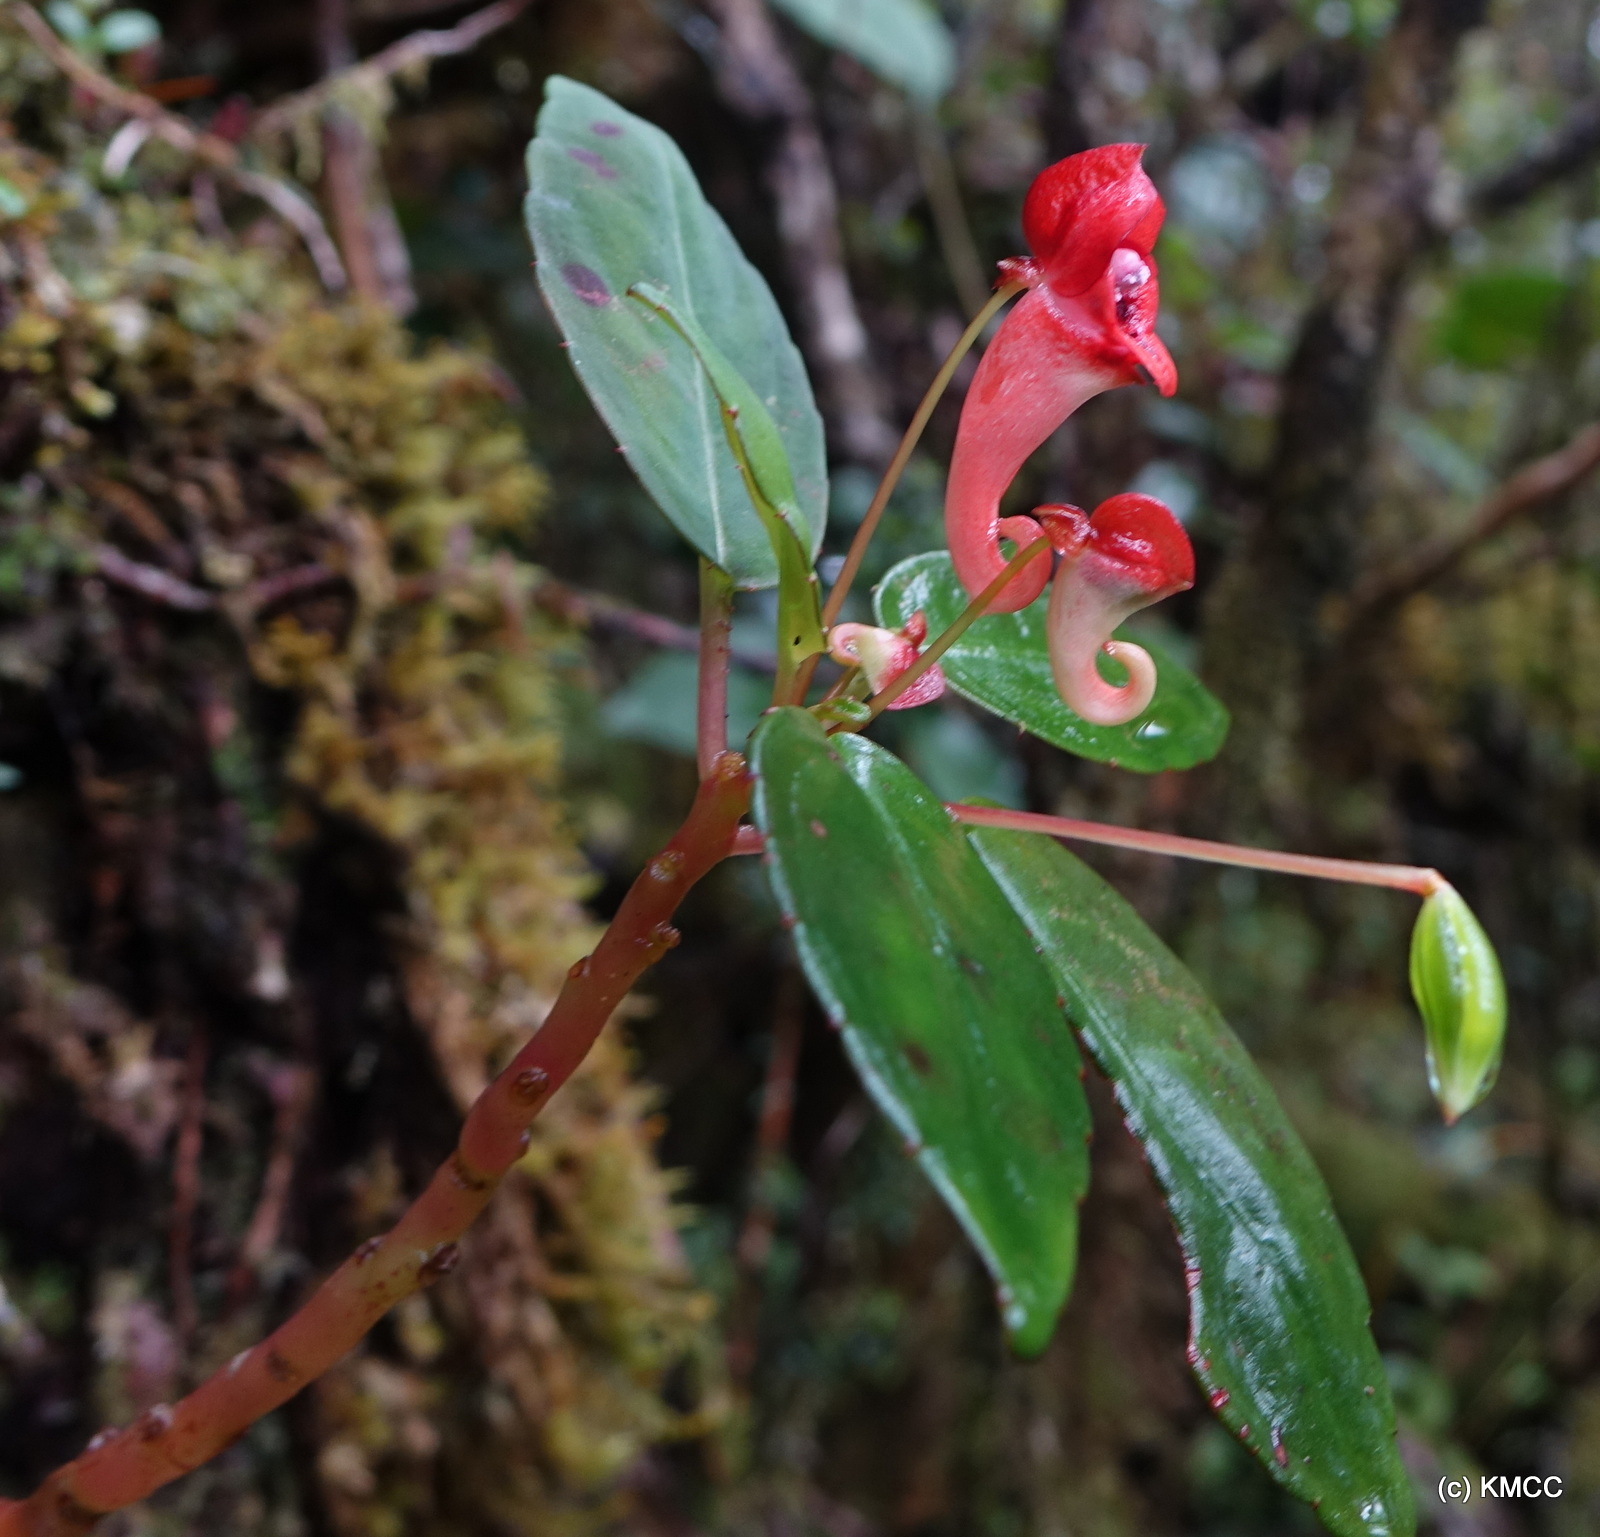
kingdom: Plantae
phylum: Tracheophyta
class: Magnoliopsida
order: Ericales
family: Balsaminaceae
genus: Impatiens
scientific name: Impatiens danguyana
